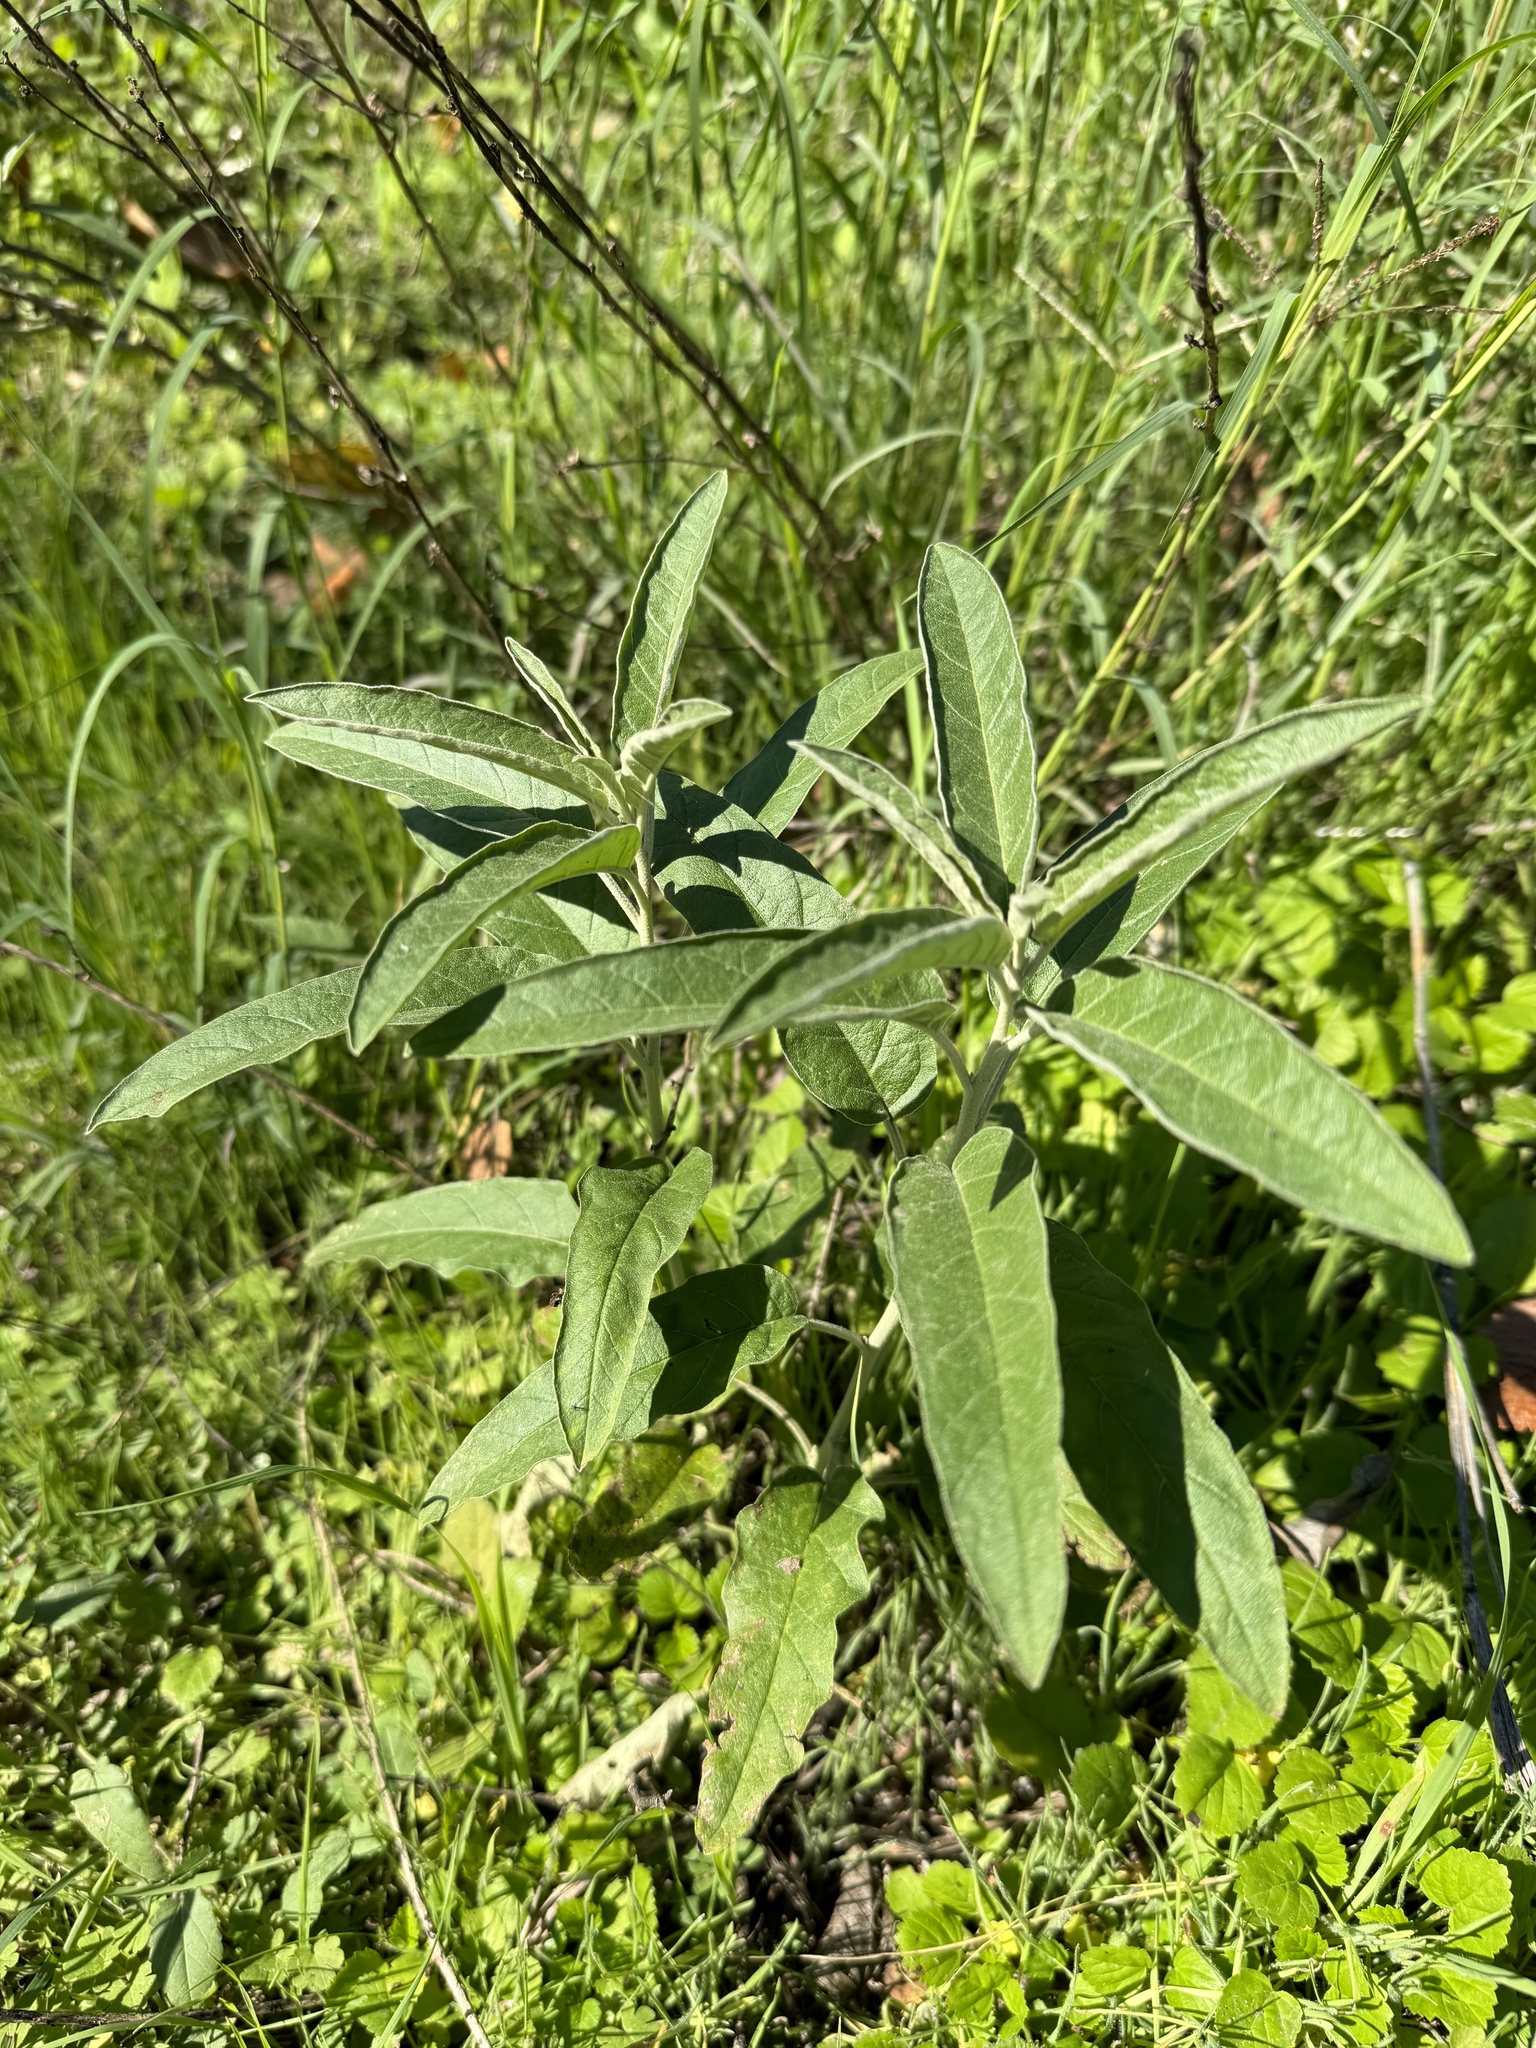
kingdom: Plantae
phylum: Tracheophyta
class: Magnoliopsida
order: Solanales
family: Solanaceae
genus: Solanum
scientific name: Solanum elaeagnifolium
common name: Silverleaf nightshade
